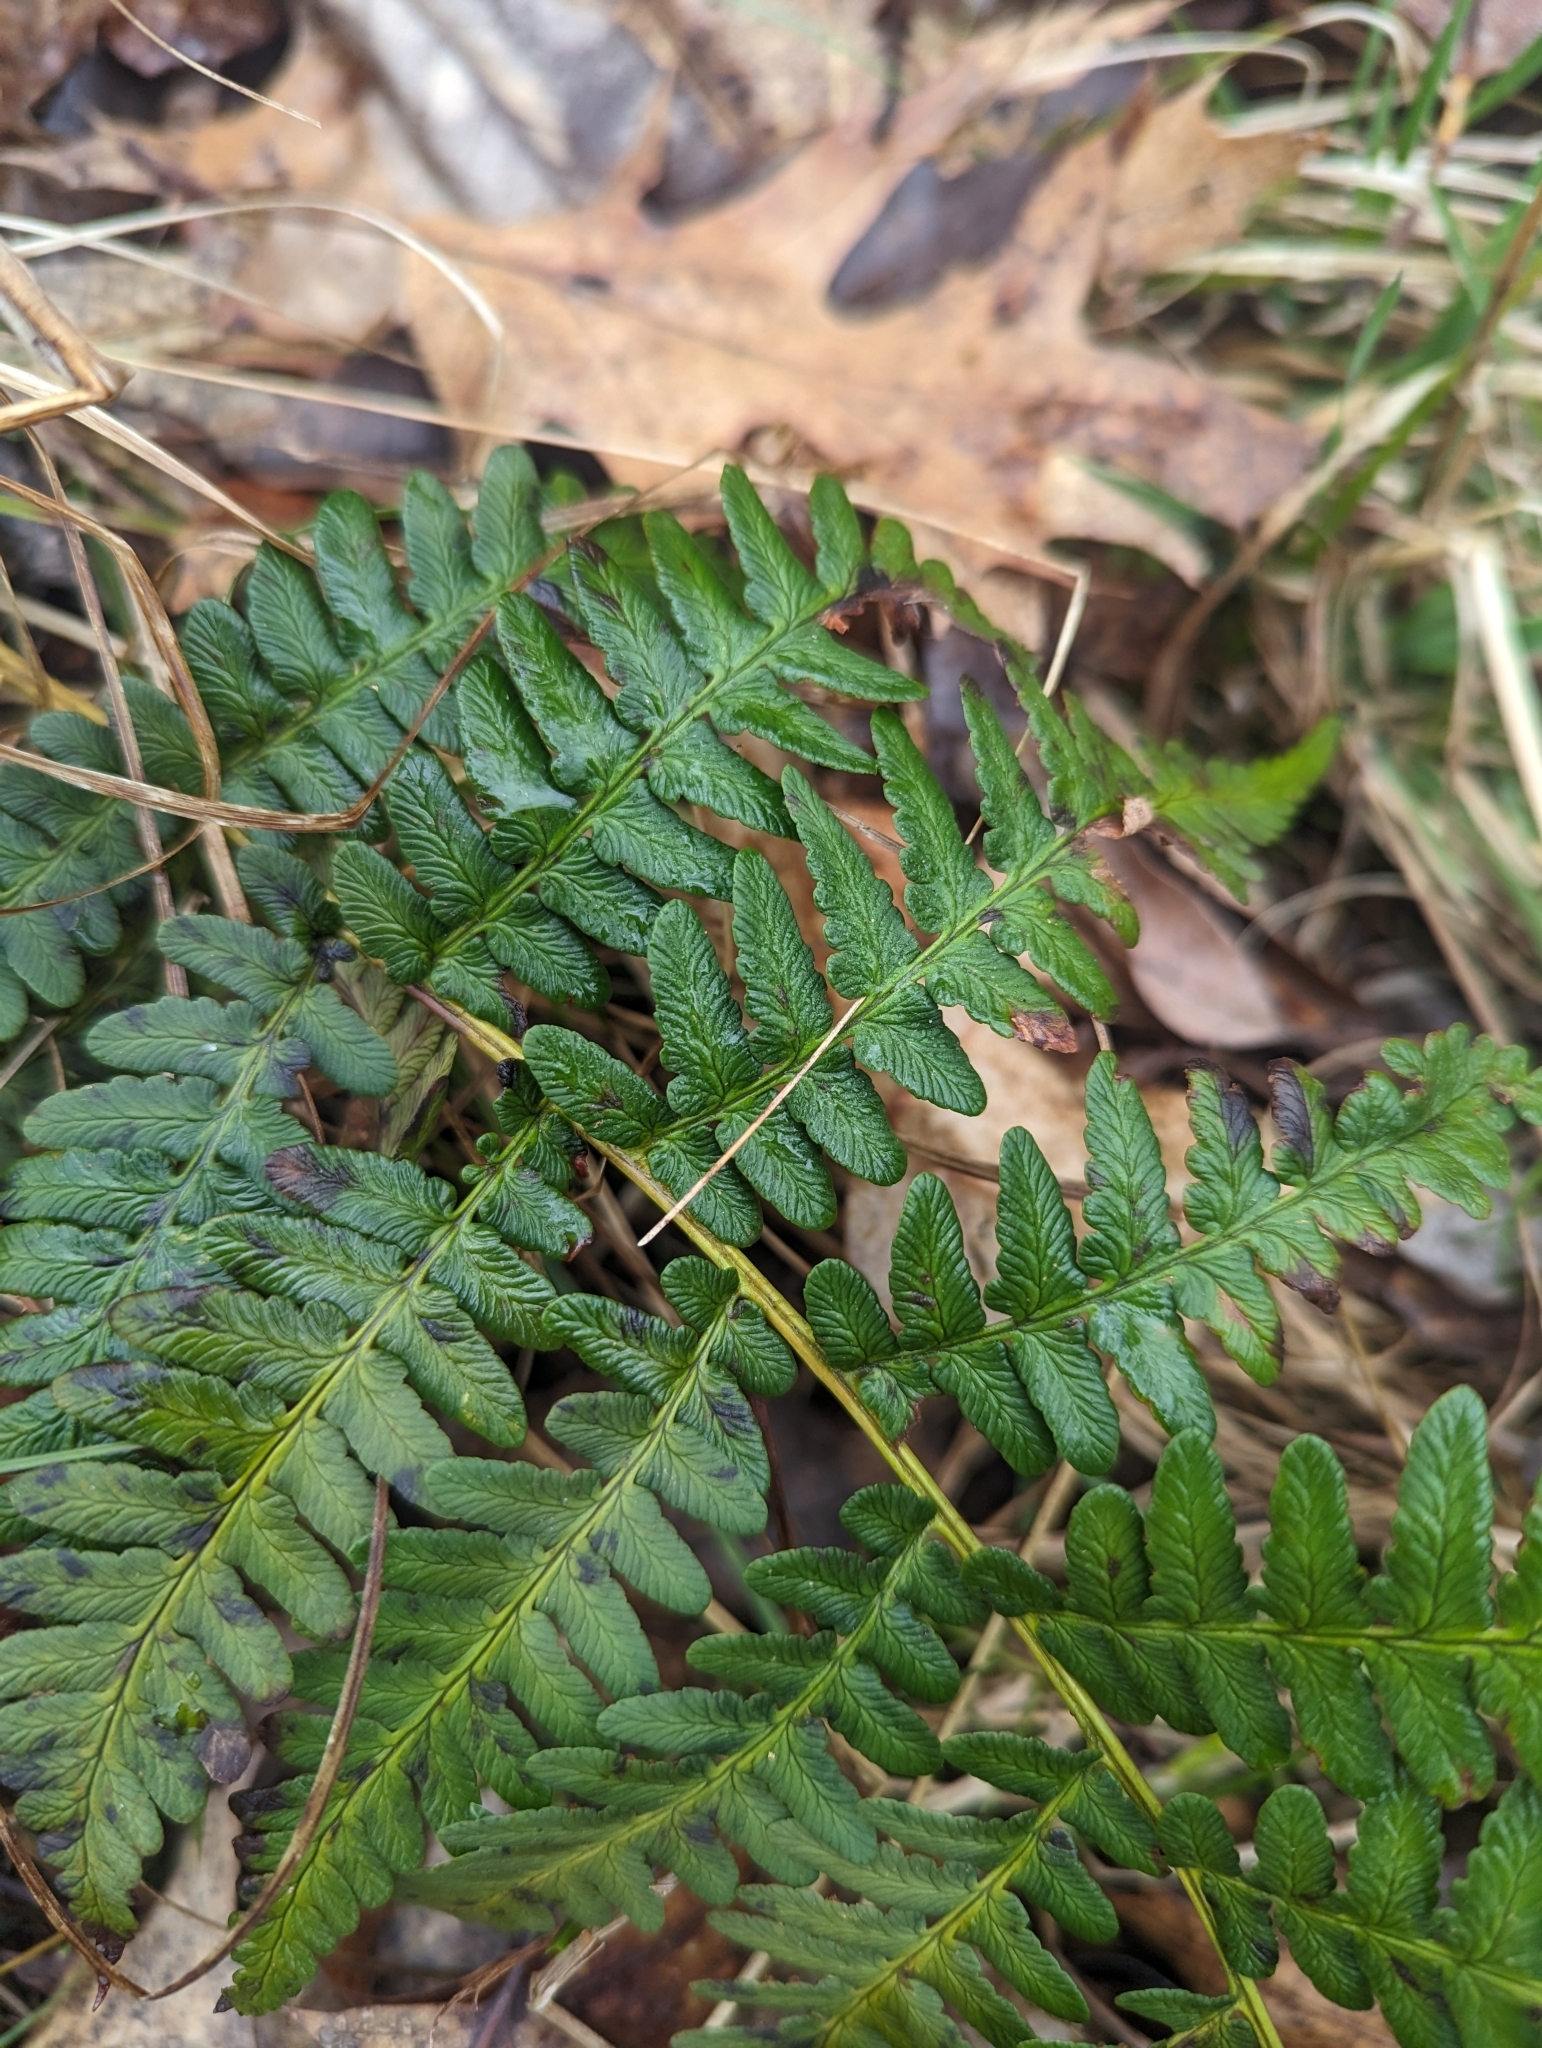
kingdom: Plantae
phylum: Tracheophyta
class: Polypodiopsida
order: Polypodiales
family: Dryopteridaceae
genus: Dryopteris
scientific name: Dryopteris marginalis
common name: Marginal wood fern
